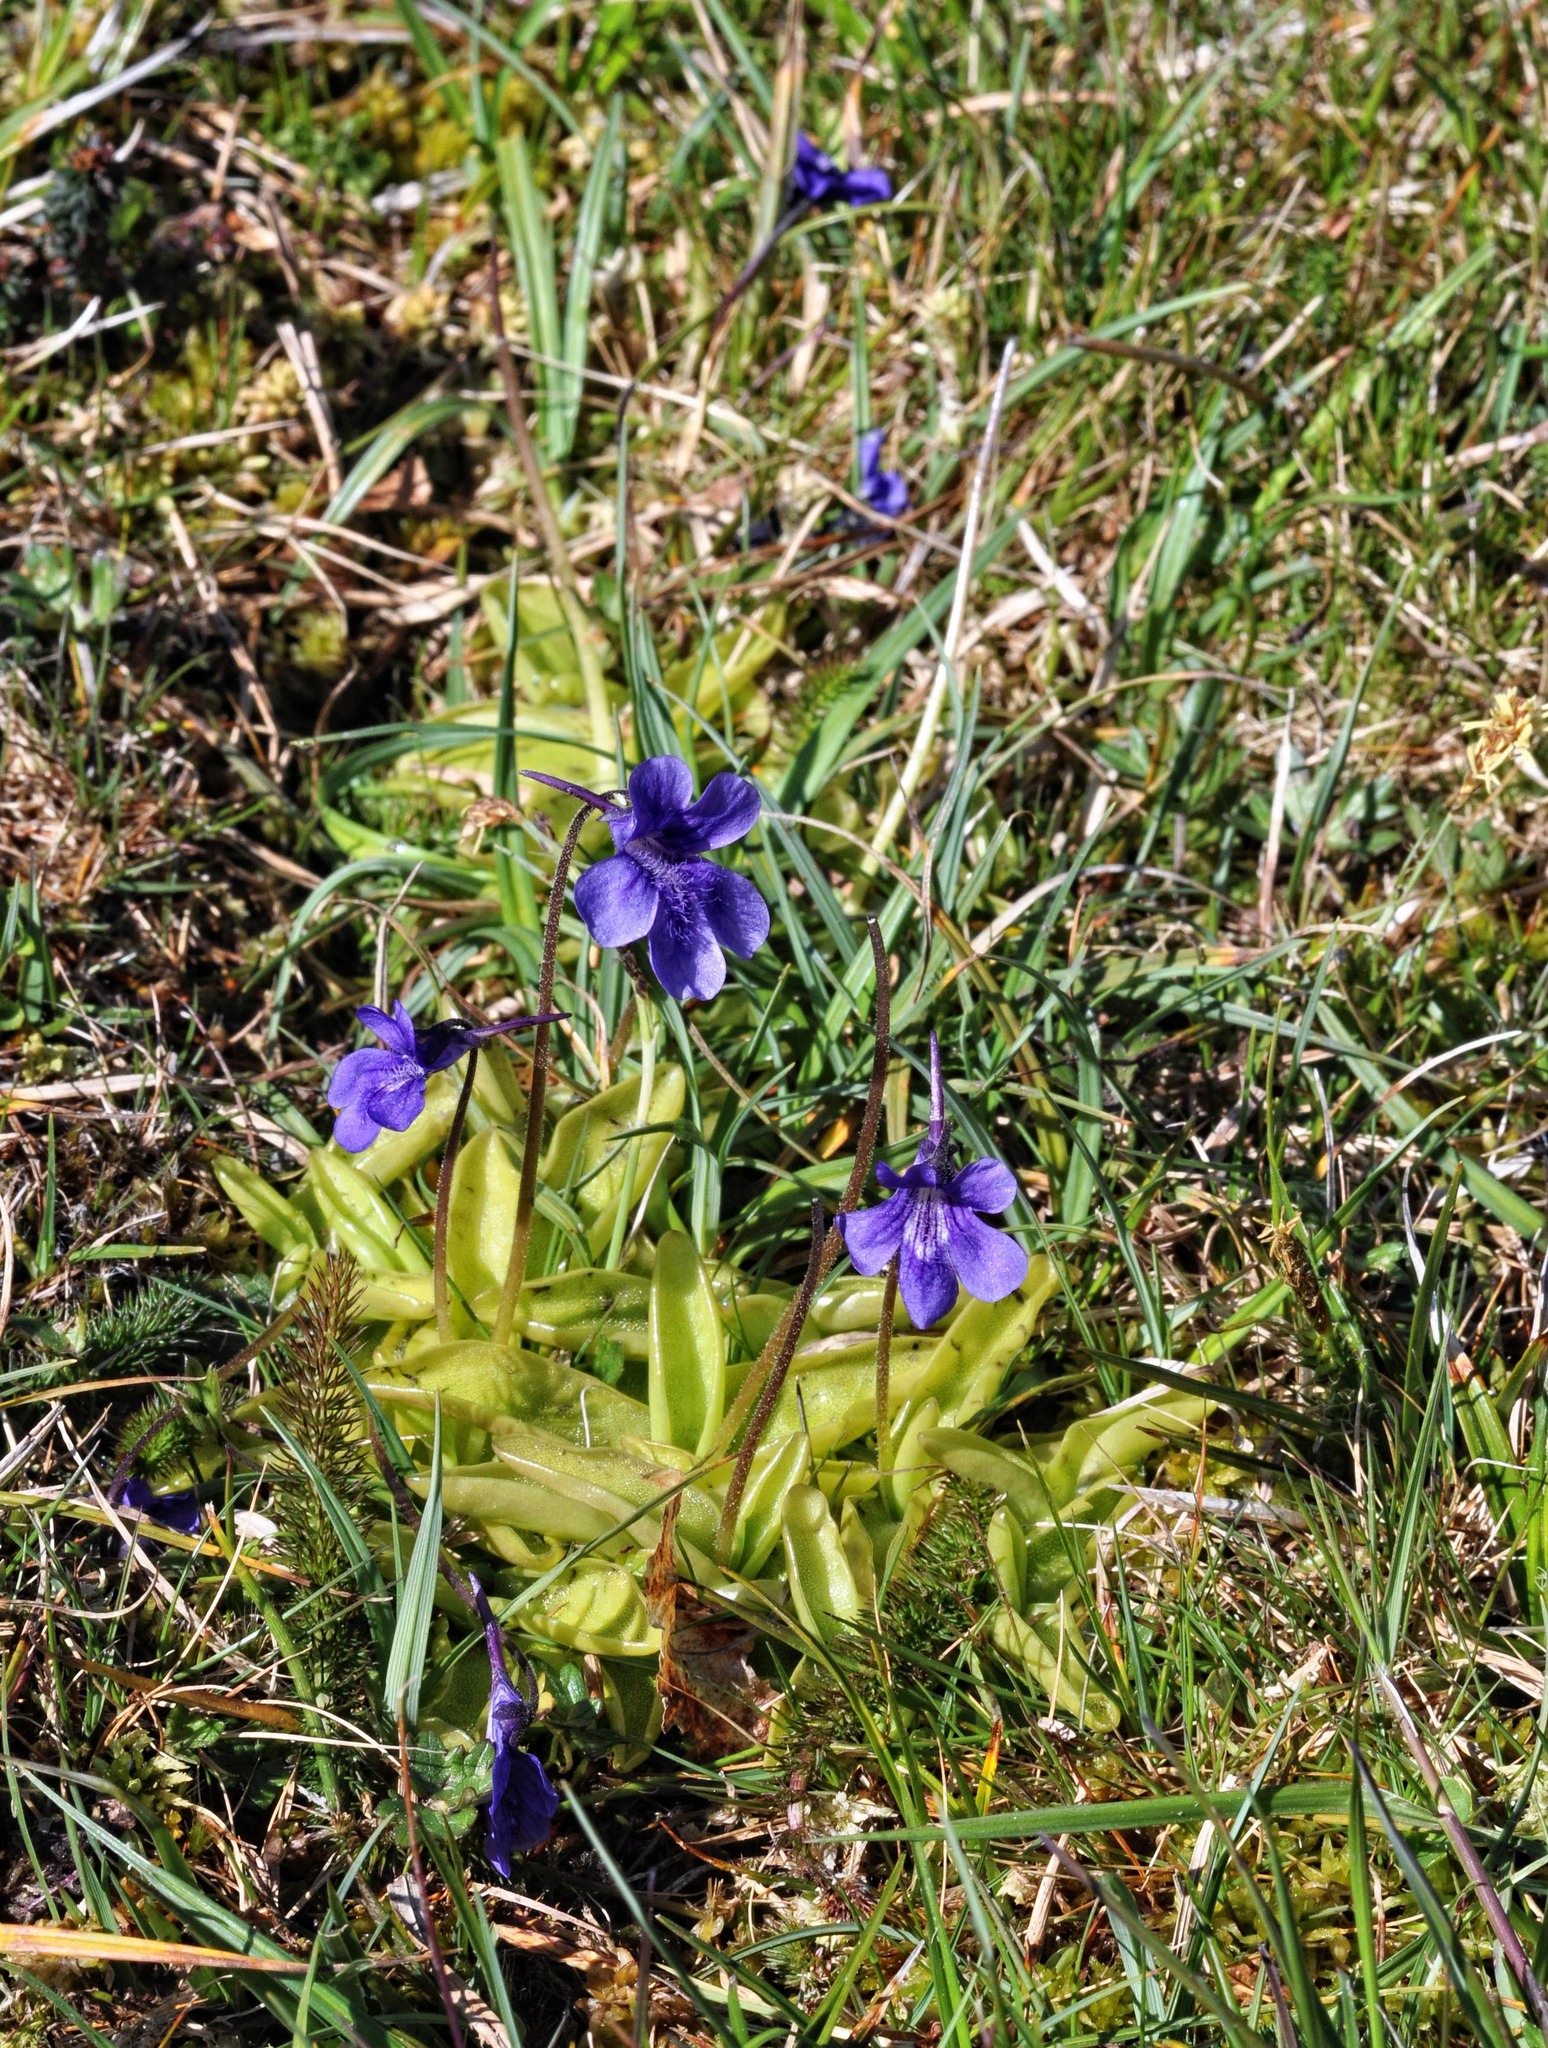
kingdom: Plantae
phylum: Tracheophyta
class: Magnoliopsida
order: Lamiales
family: Lentibulariaceae
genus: Pinguicula
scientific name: Pinguicula grandiflora
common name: Large-flowered butterwort
